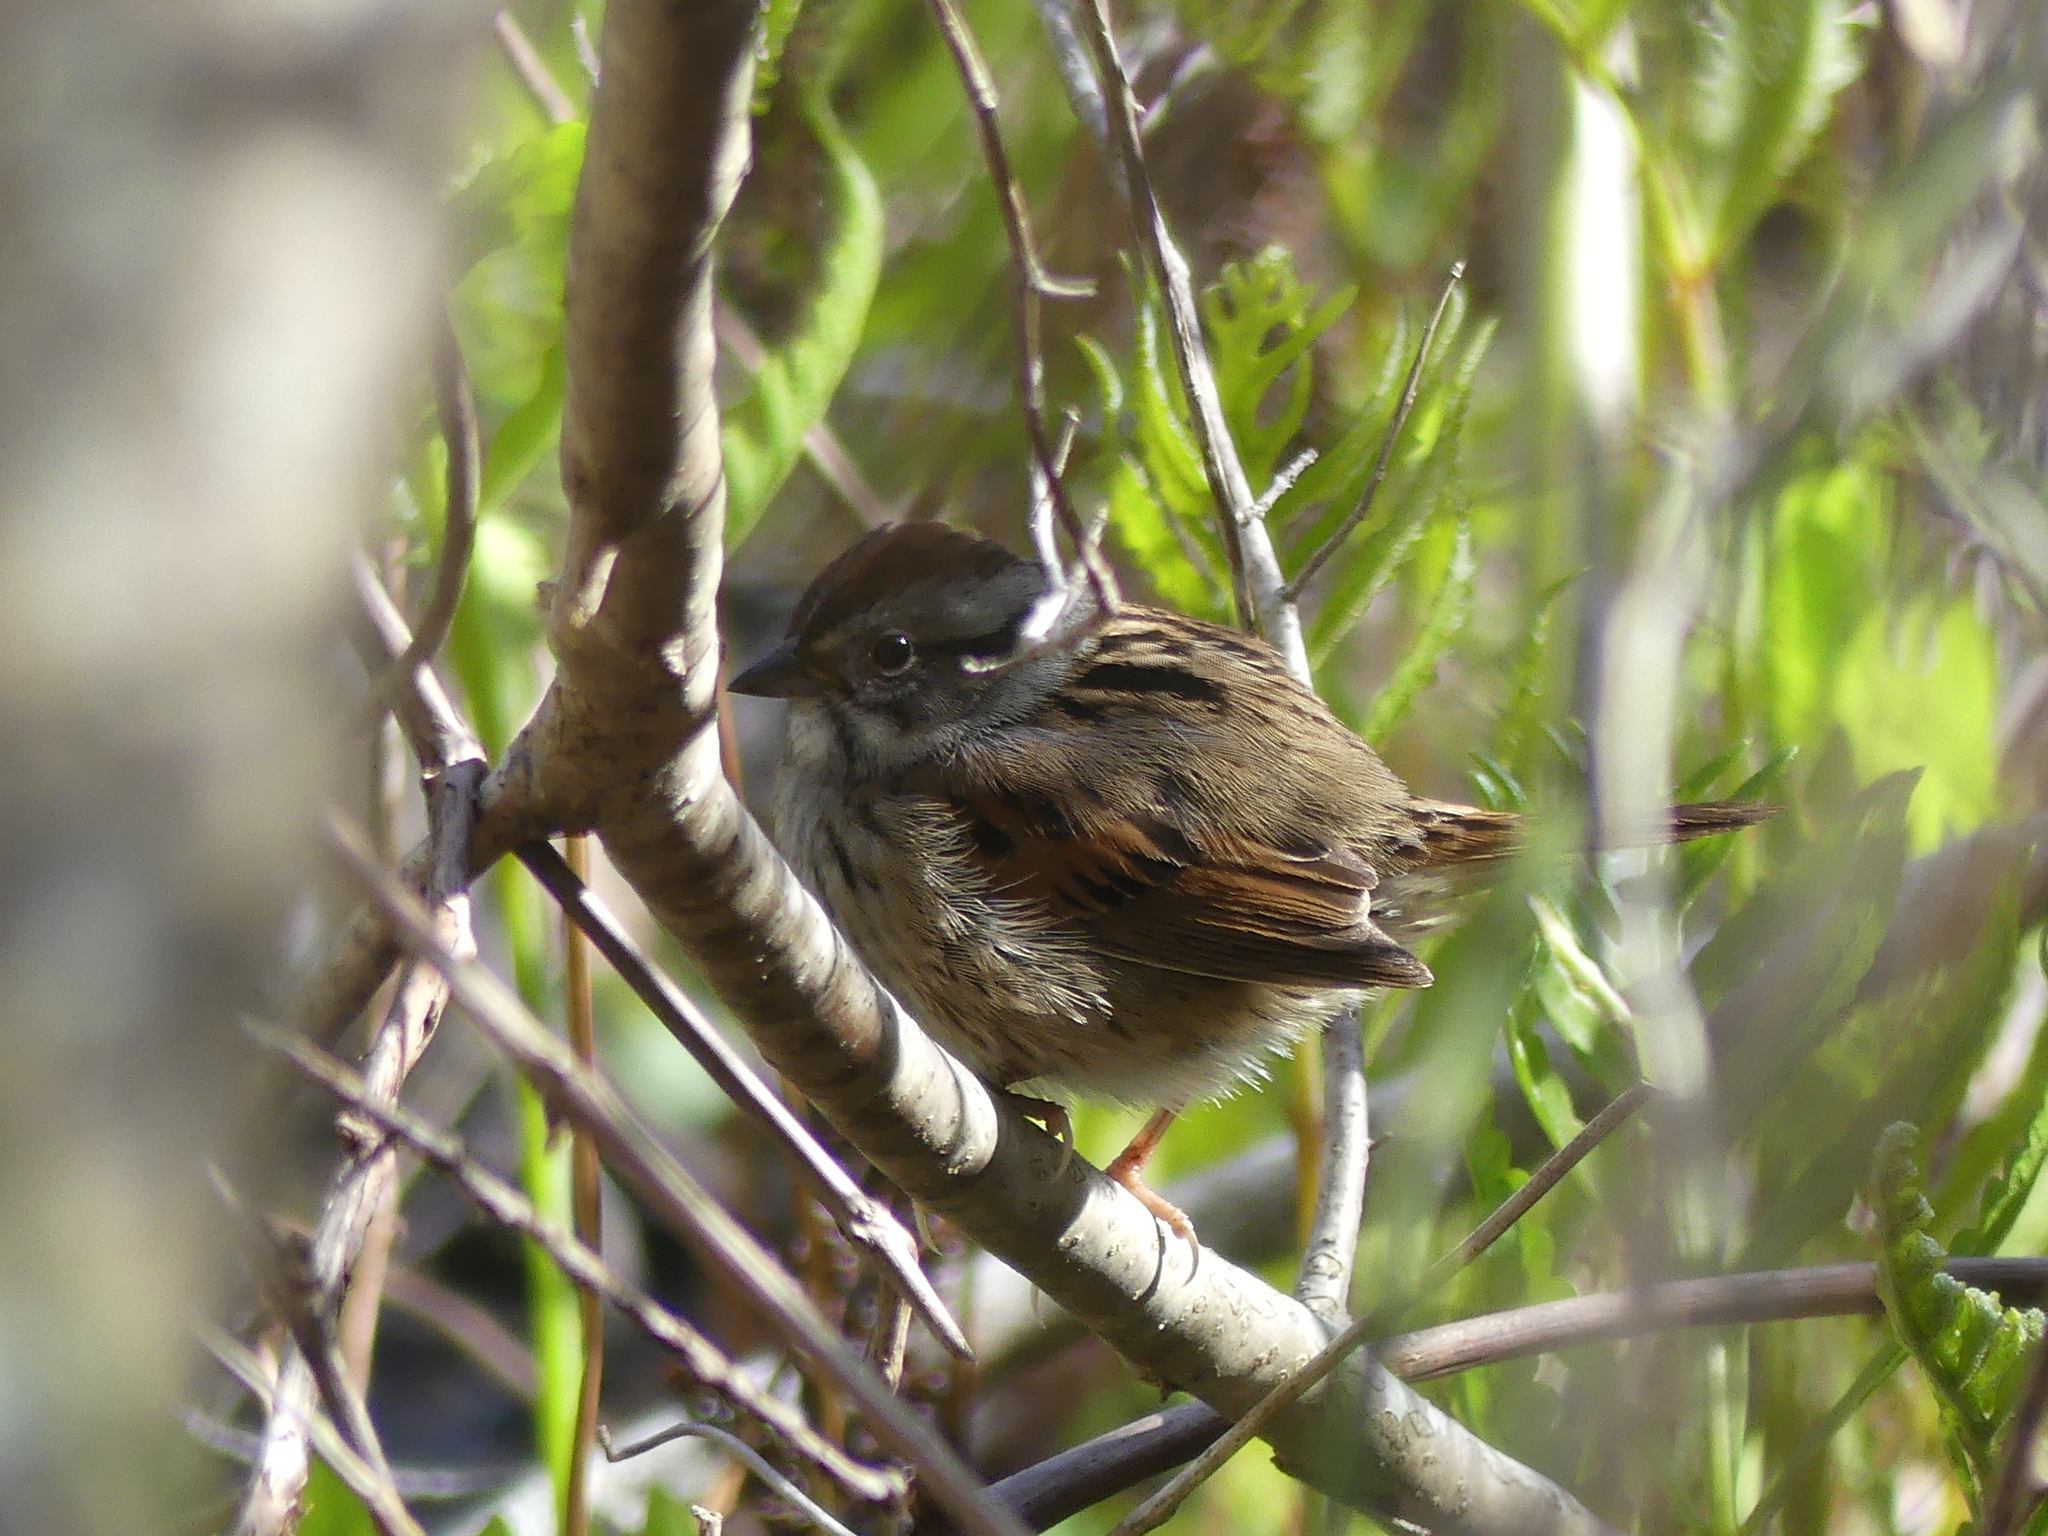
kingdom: Animalia
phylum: Chordata
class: Aves
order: Passeriformes
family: Passerellidae
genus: Melospiza
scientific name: Melospiza georgiana
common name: Swamp sparrow
